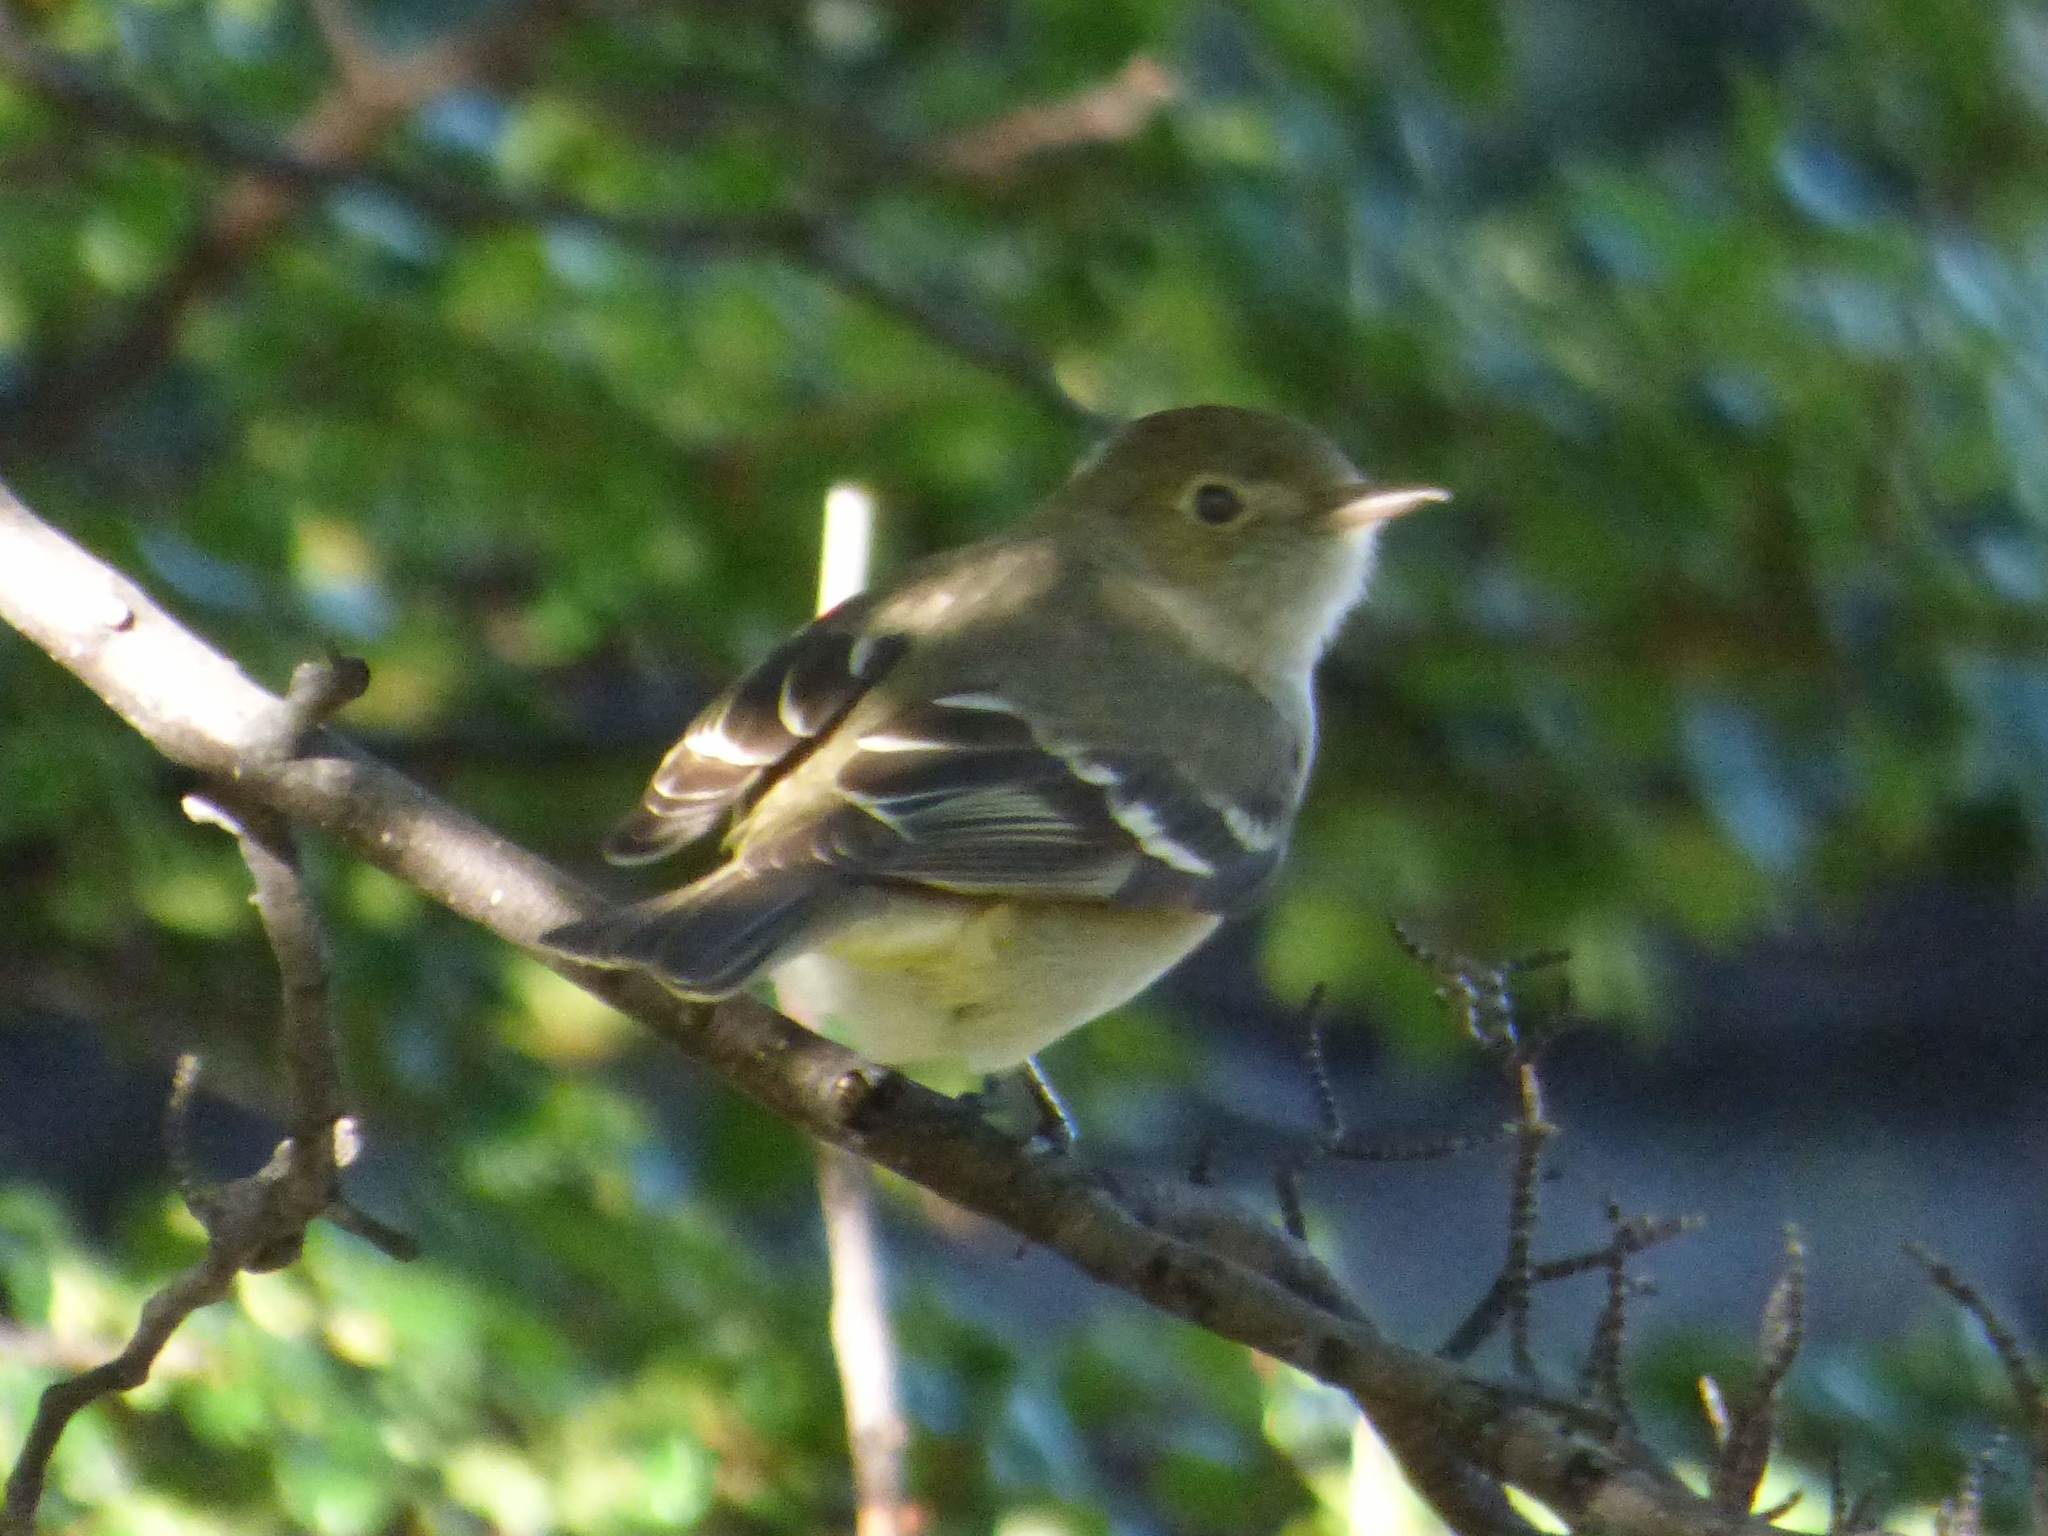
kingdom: Animalia
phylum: Chordata
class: Aves
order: Passeriformes
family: Tyrannidae
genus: Elaenia
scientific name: Elaenia albiceps
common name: White-crested elaenia
